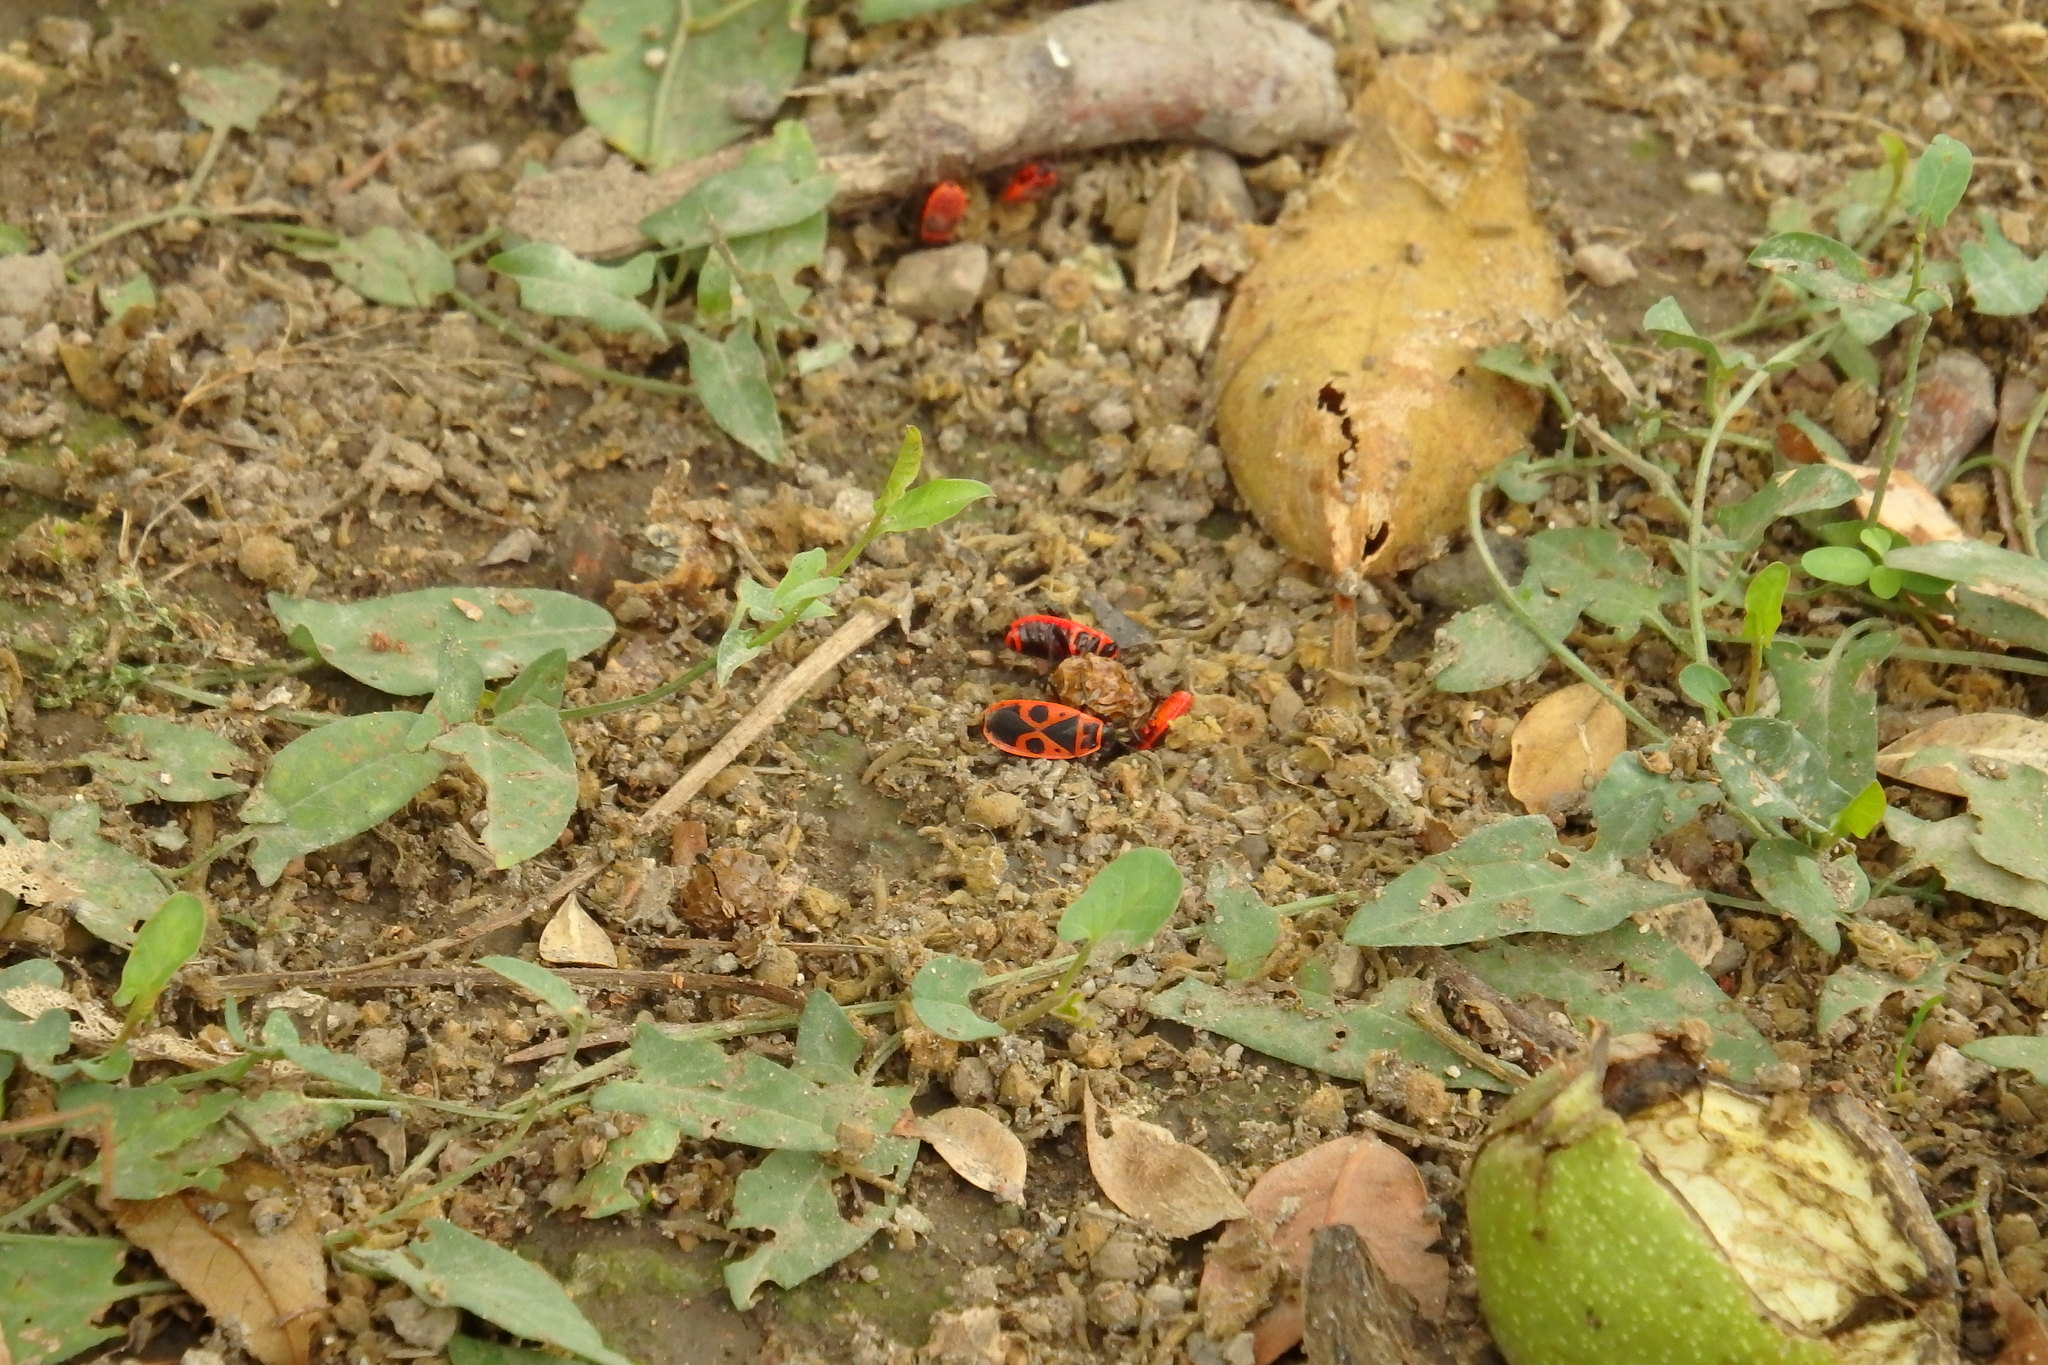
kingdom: Animalia
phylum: Arthropoda
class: Insecta
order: Hemiptera
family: Pyrrhocoridae
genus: Pyrrhocoris
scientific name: Pyrrhocoris apterus
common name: Firebug
